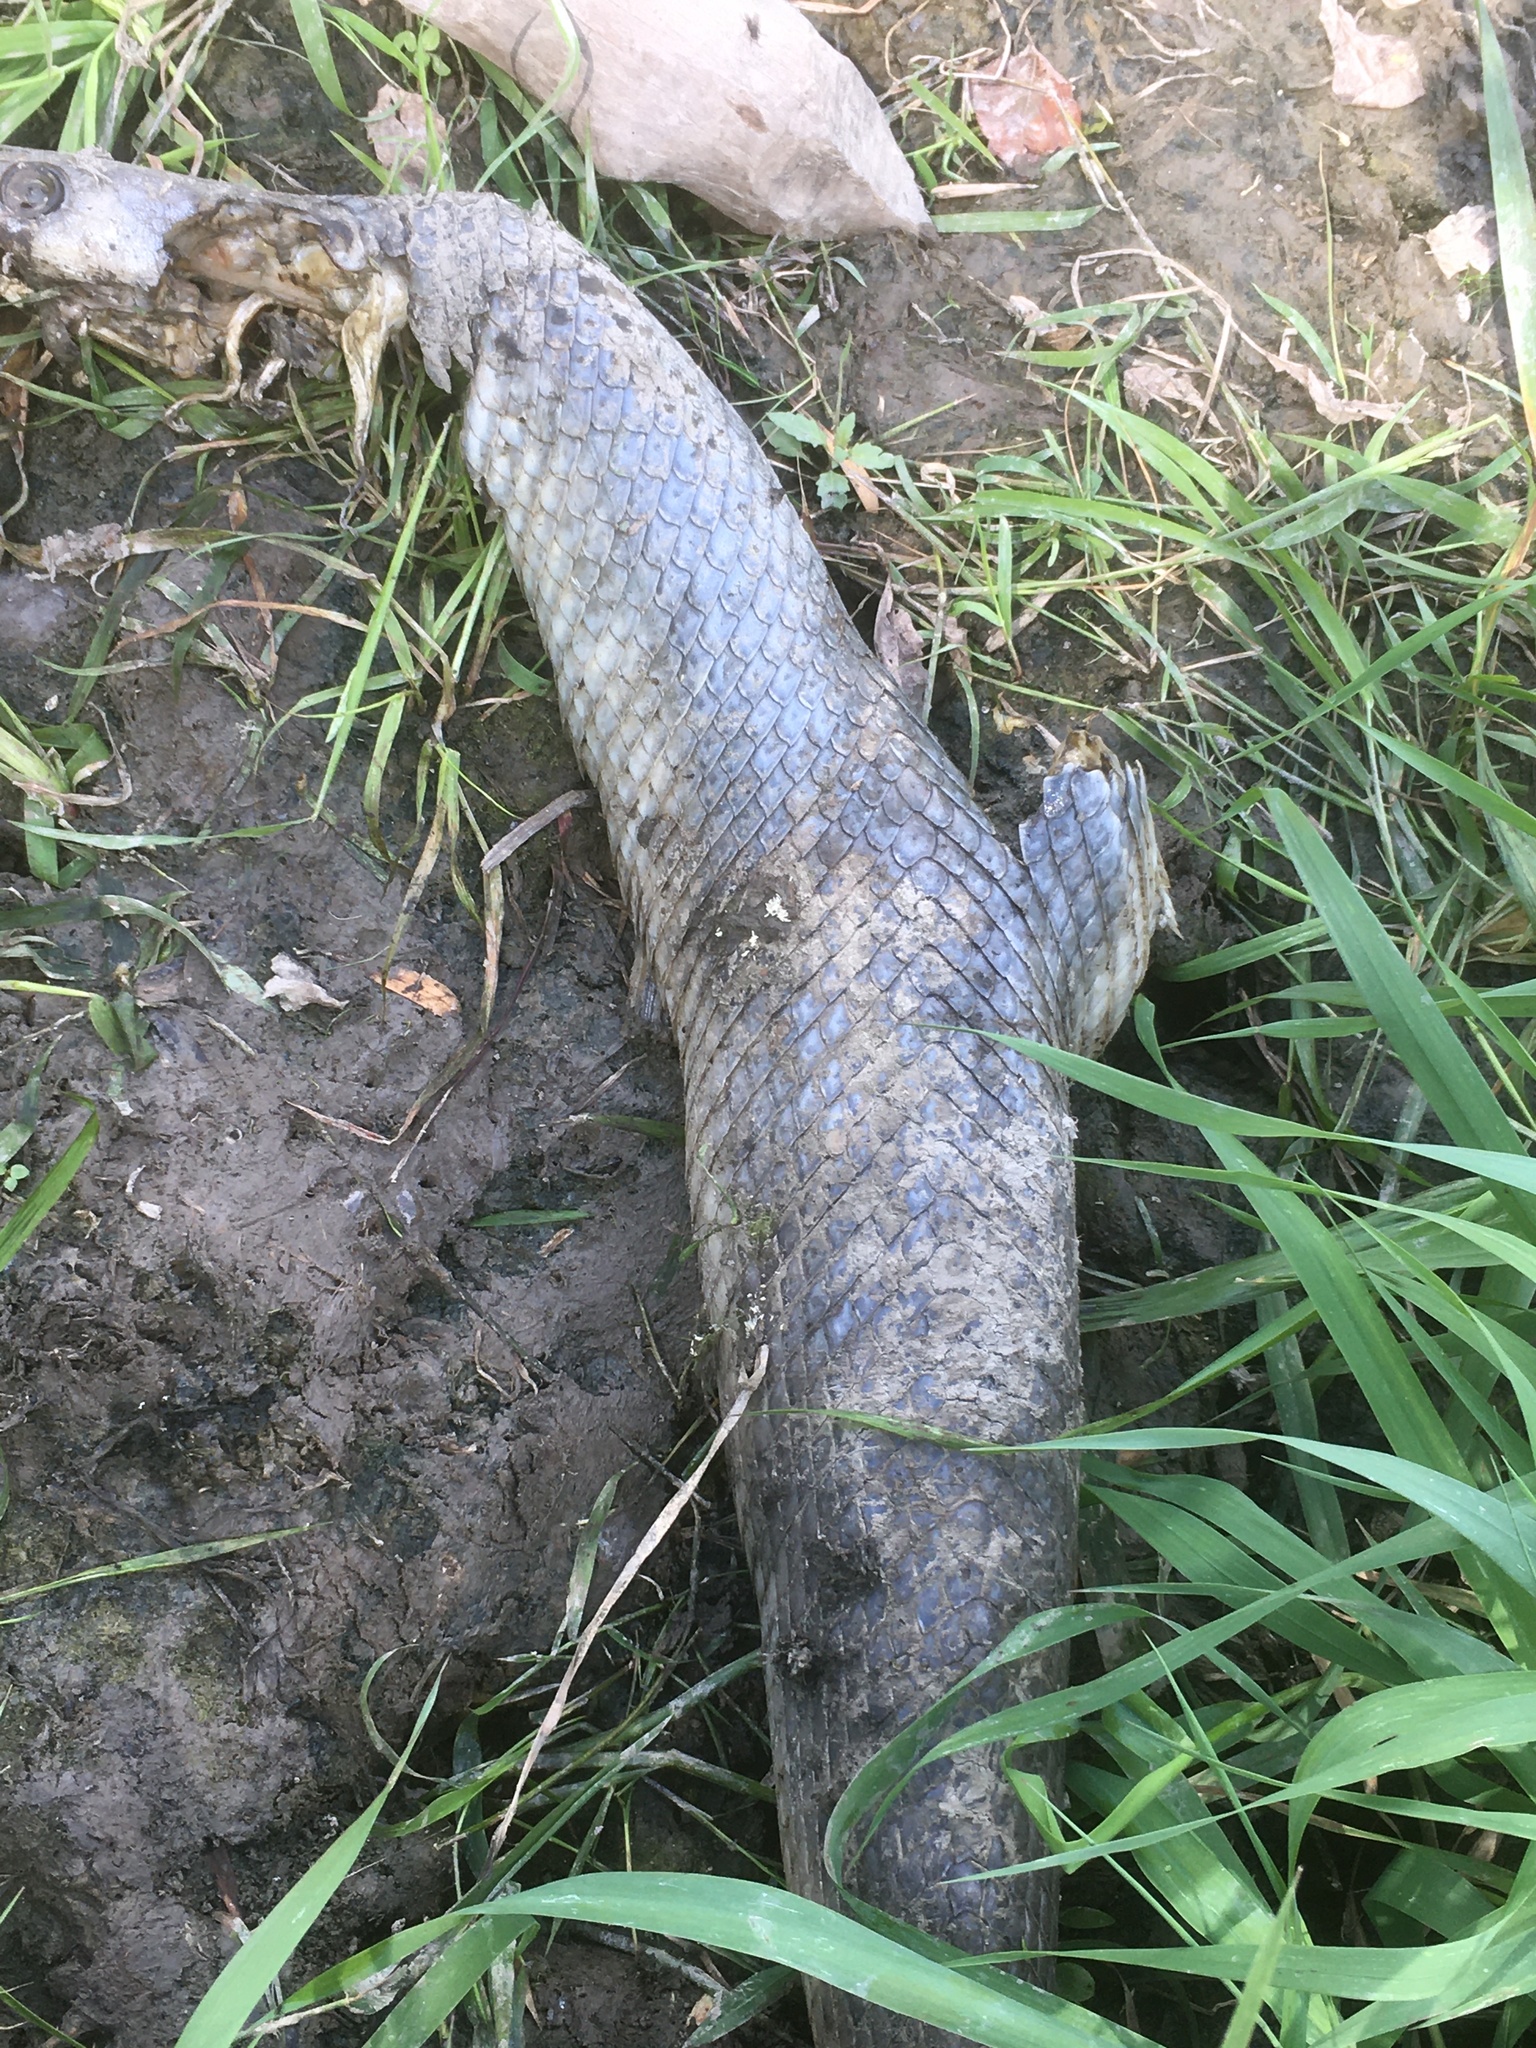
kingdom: Animalia
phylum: Chordata
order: Lepisosteiformes
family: Lepisosteidae
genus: Lepisosteus
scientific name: Lepisosteus osseus
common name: Longnose gar
